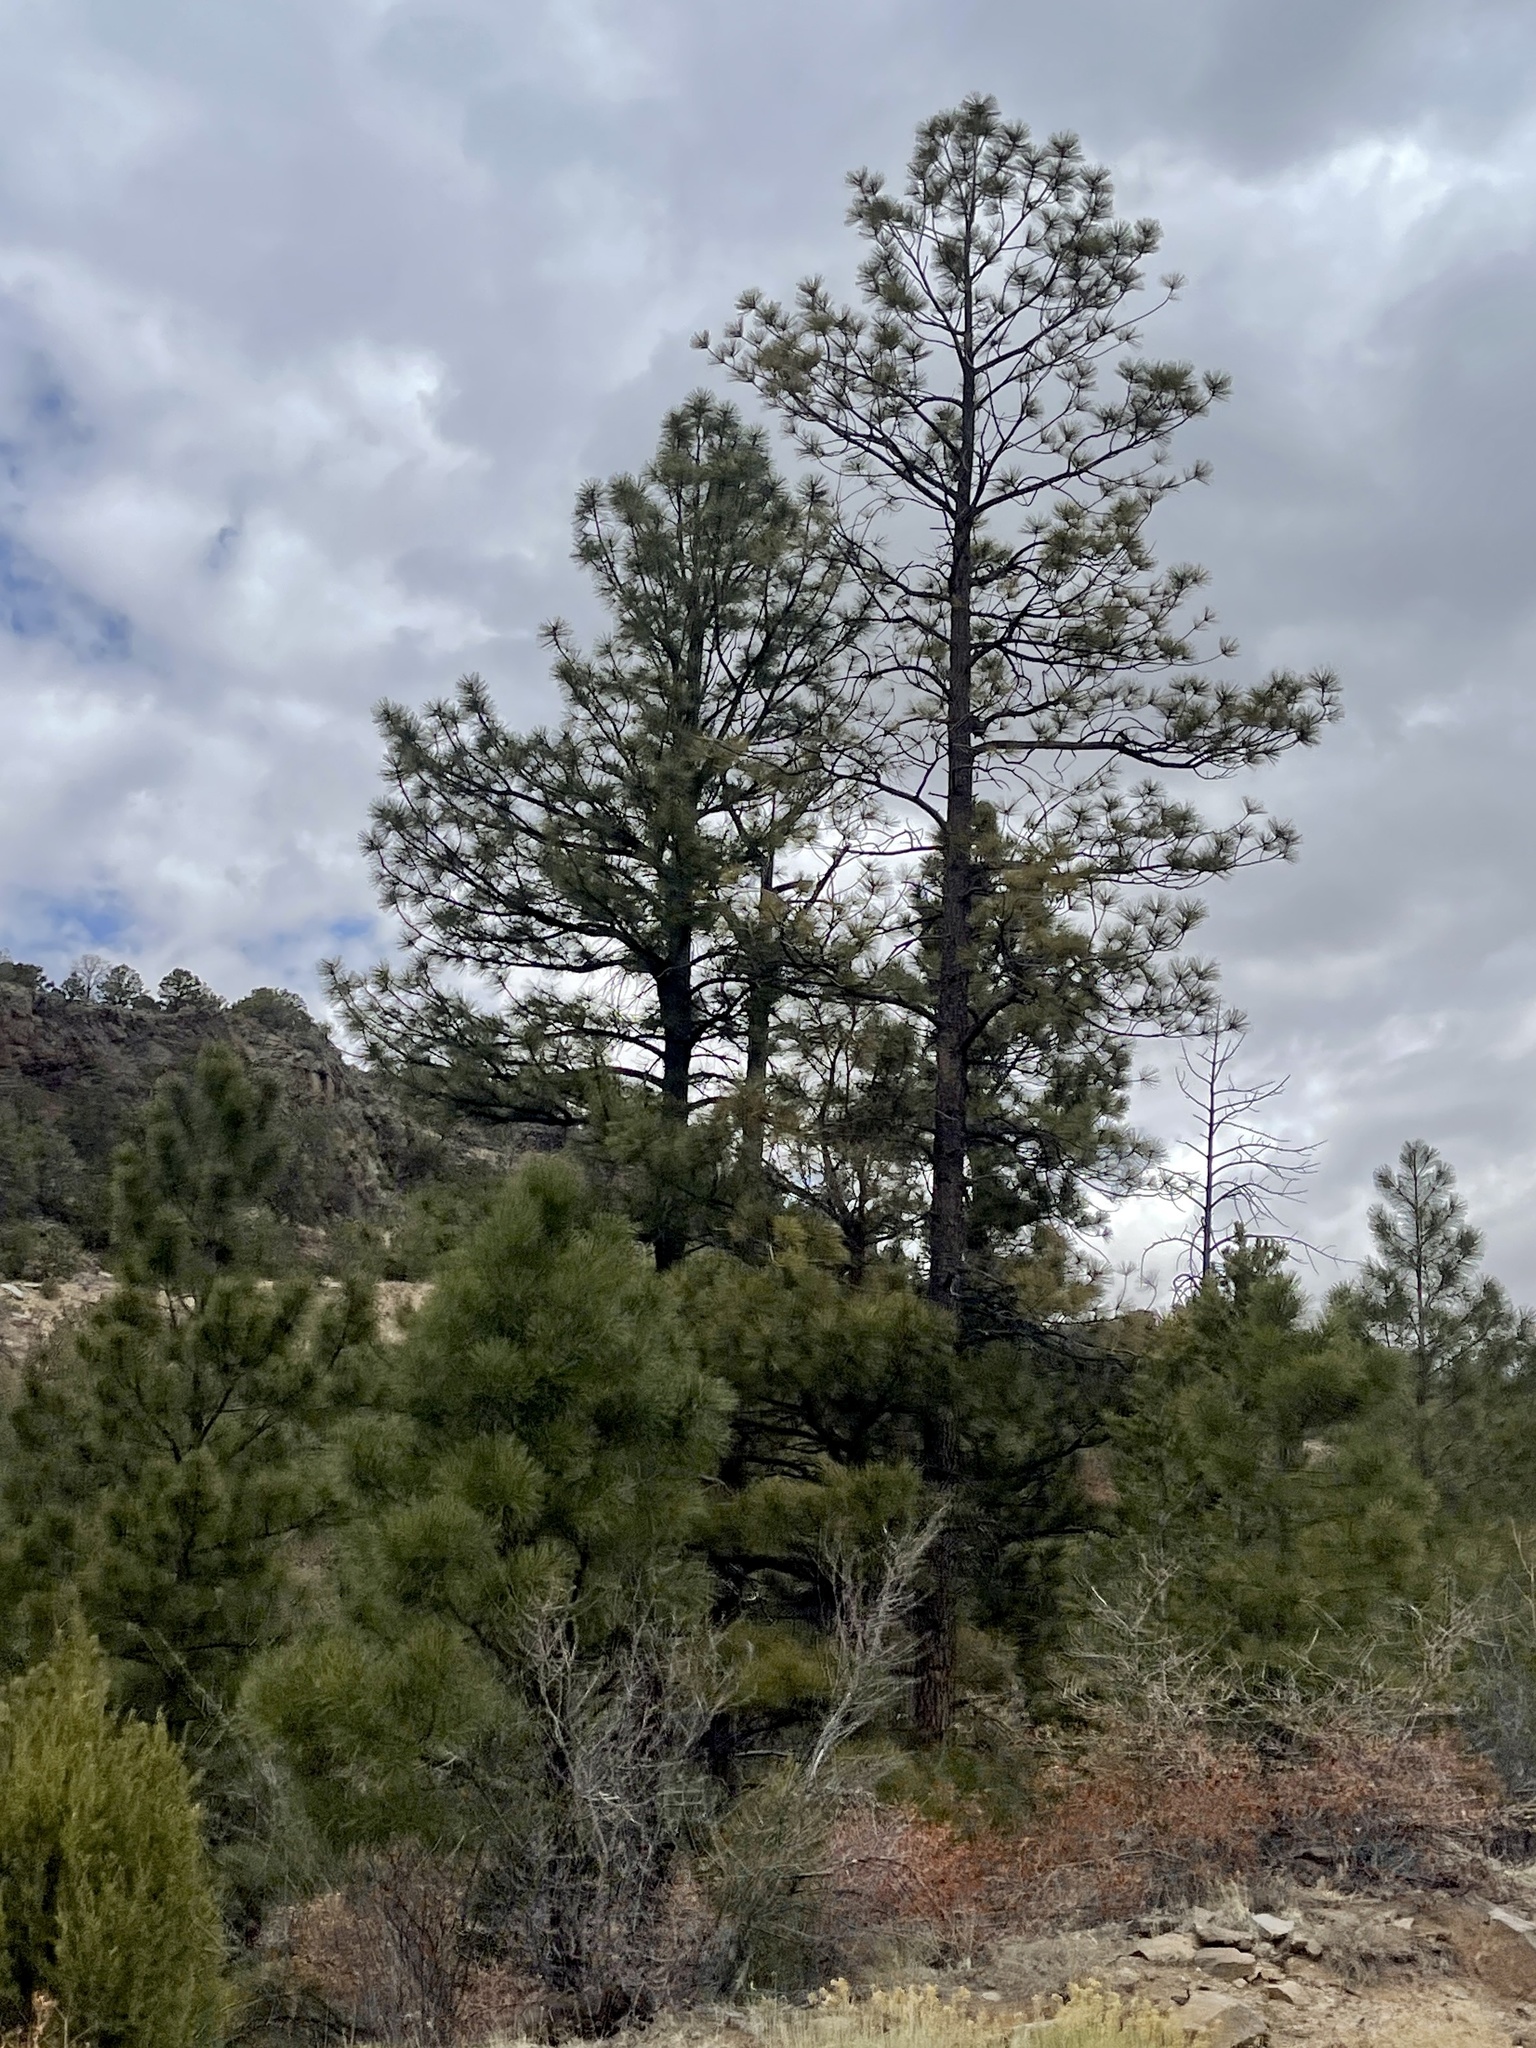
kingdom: Plantae
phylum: Tracheophyta
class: Pinopsida
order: Pinales
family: Pinaceae
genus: Pinus
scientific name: Pinus ponderosa
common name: Western yellow-pine
